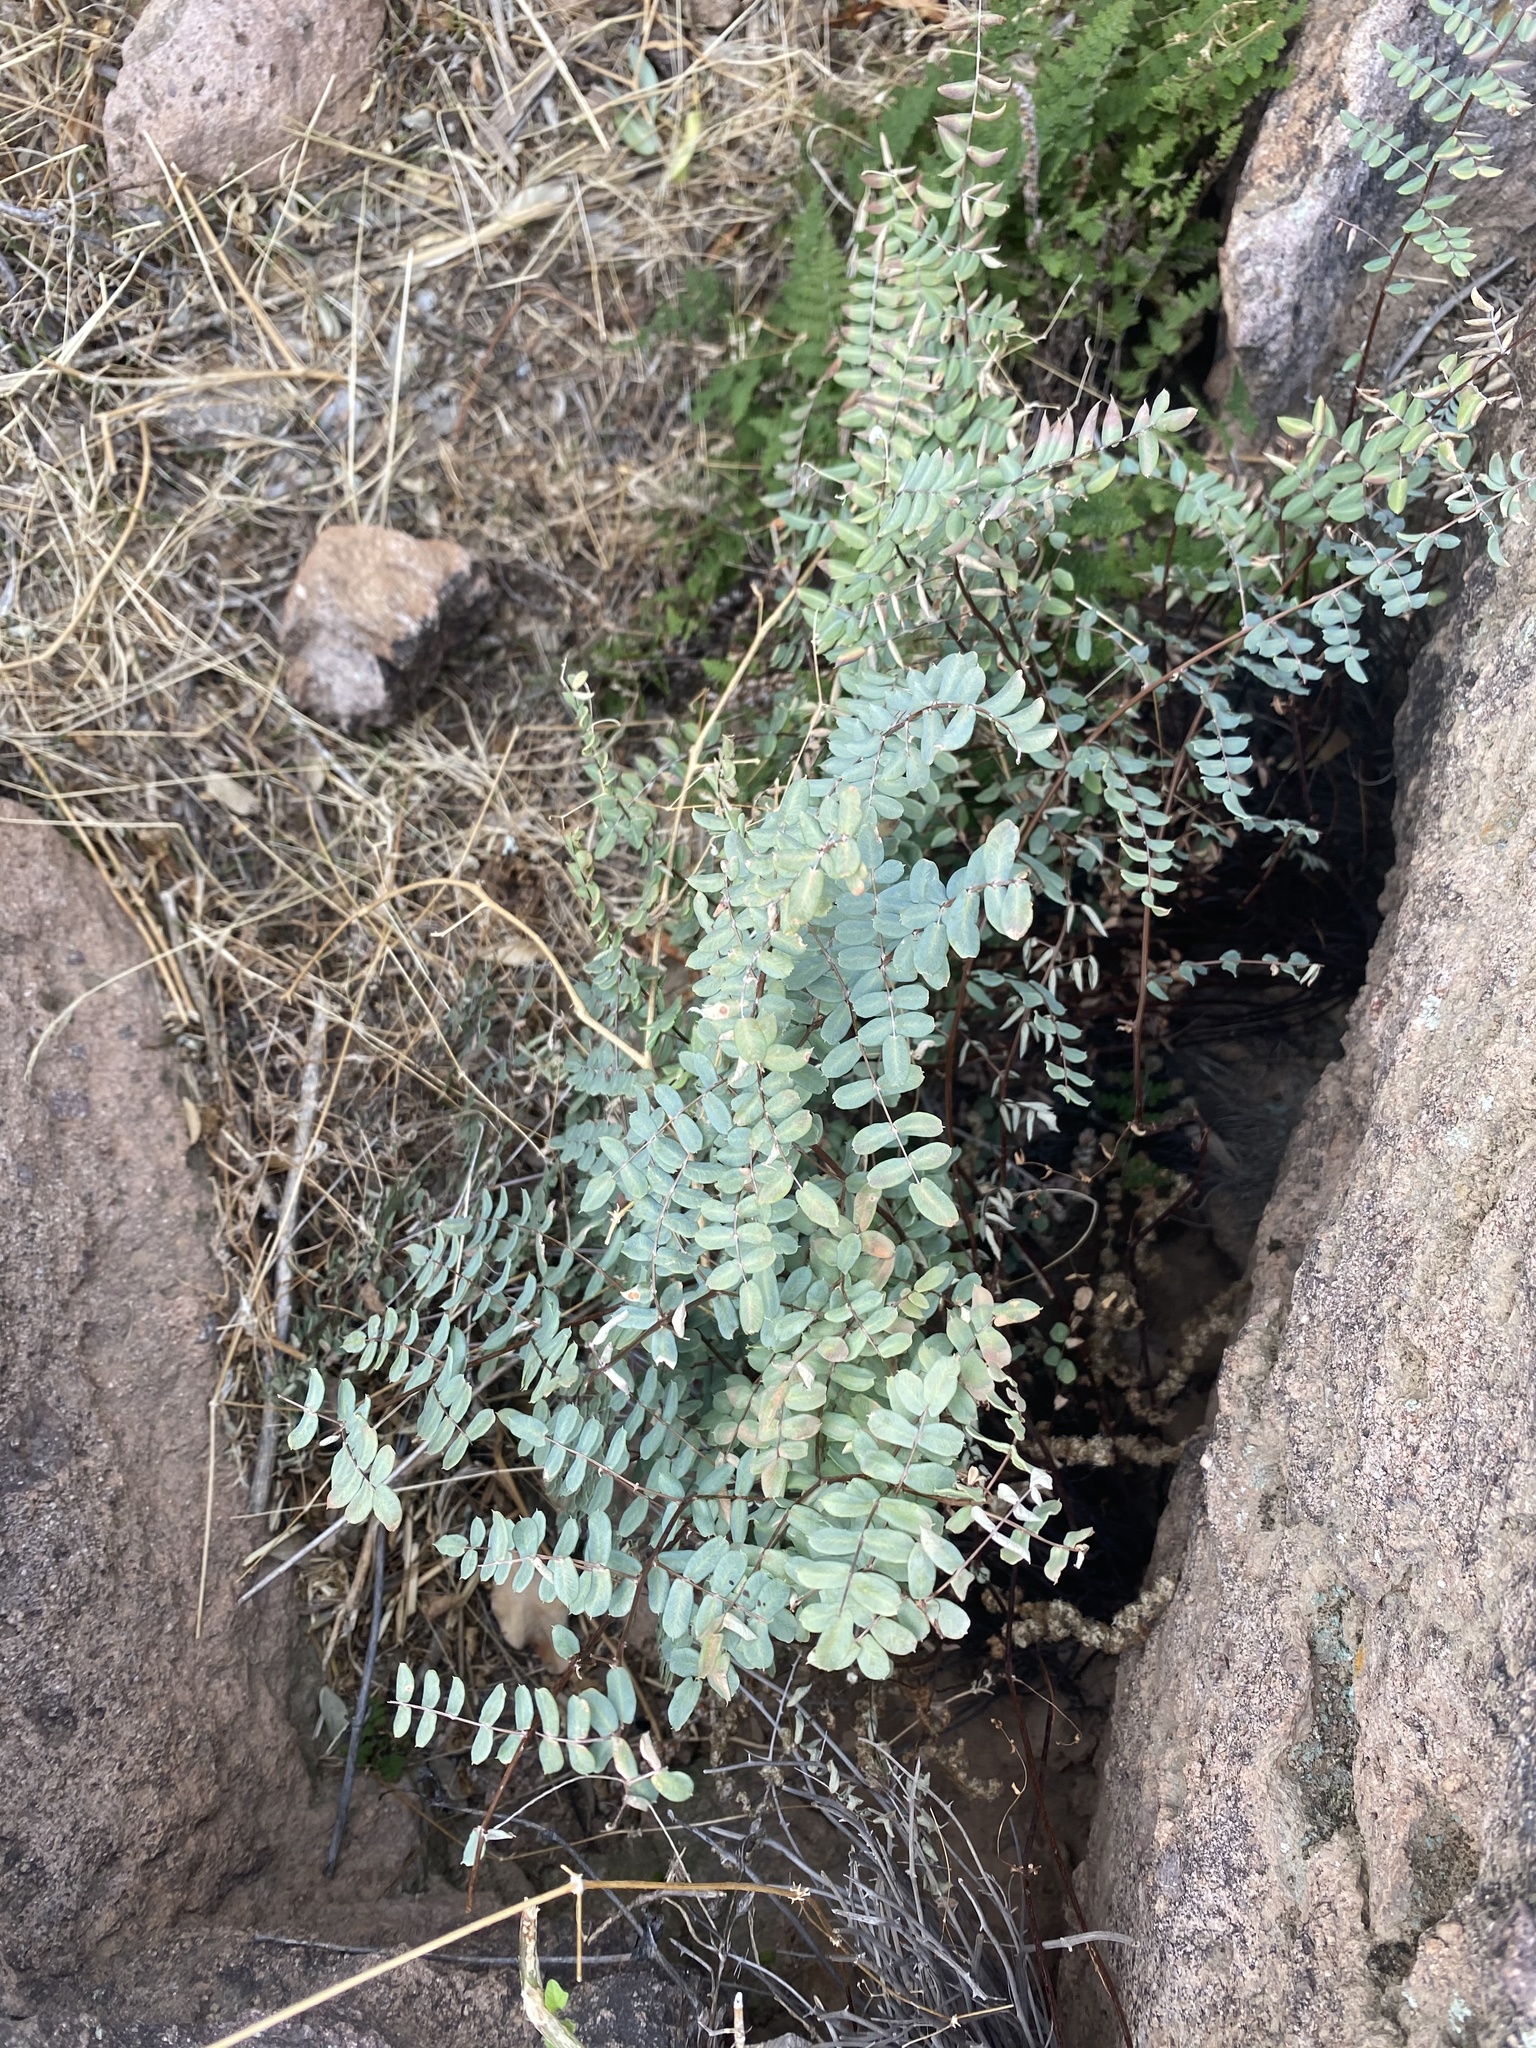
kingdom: Plantae
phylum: Tracheophyta
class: Polypodiopsida
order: Polypodiales
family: Pteridaceae
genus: Pellaea
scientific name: Pellaea truncata
